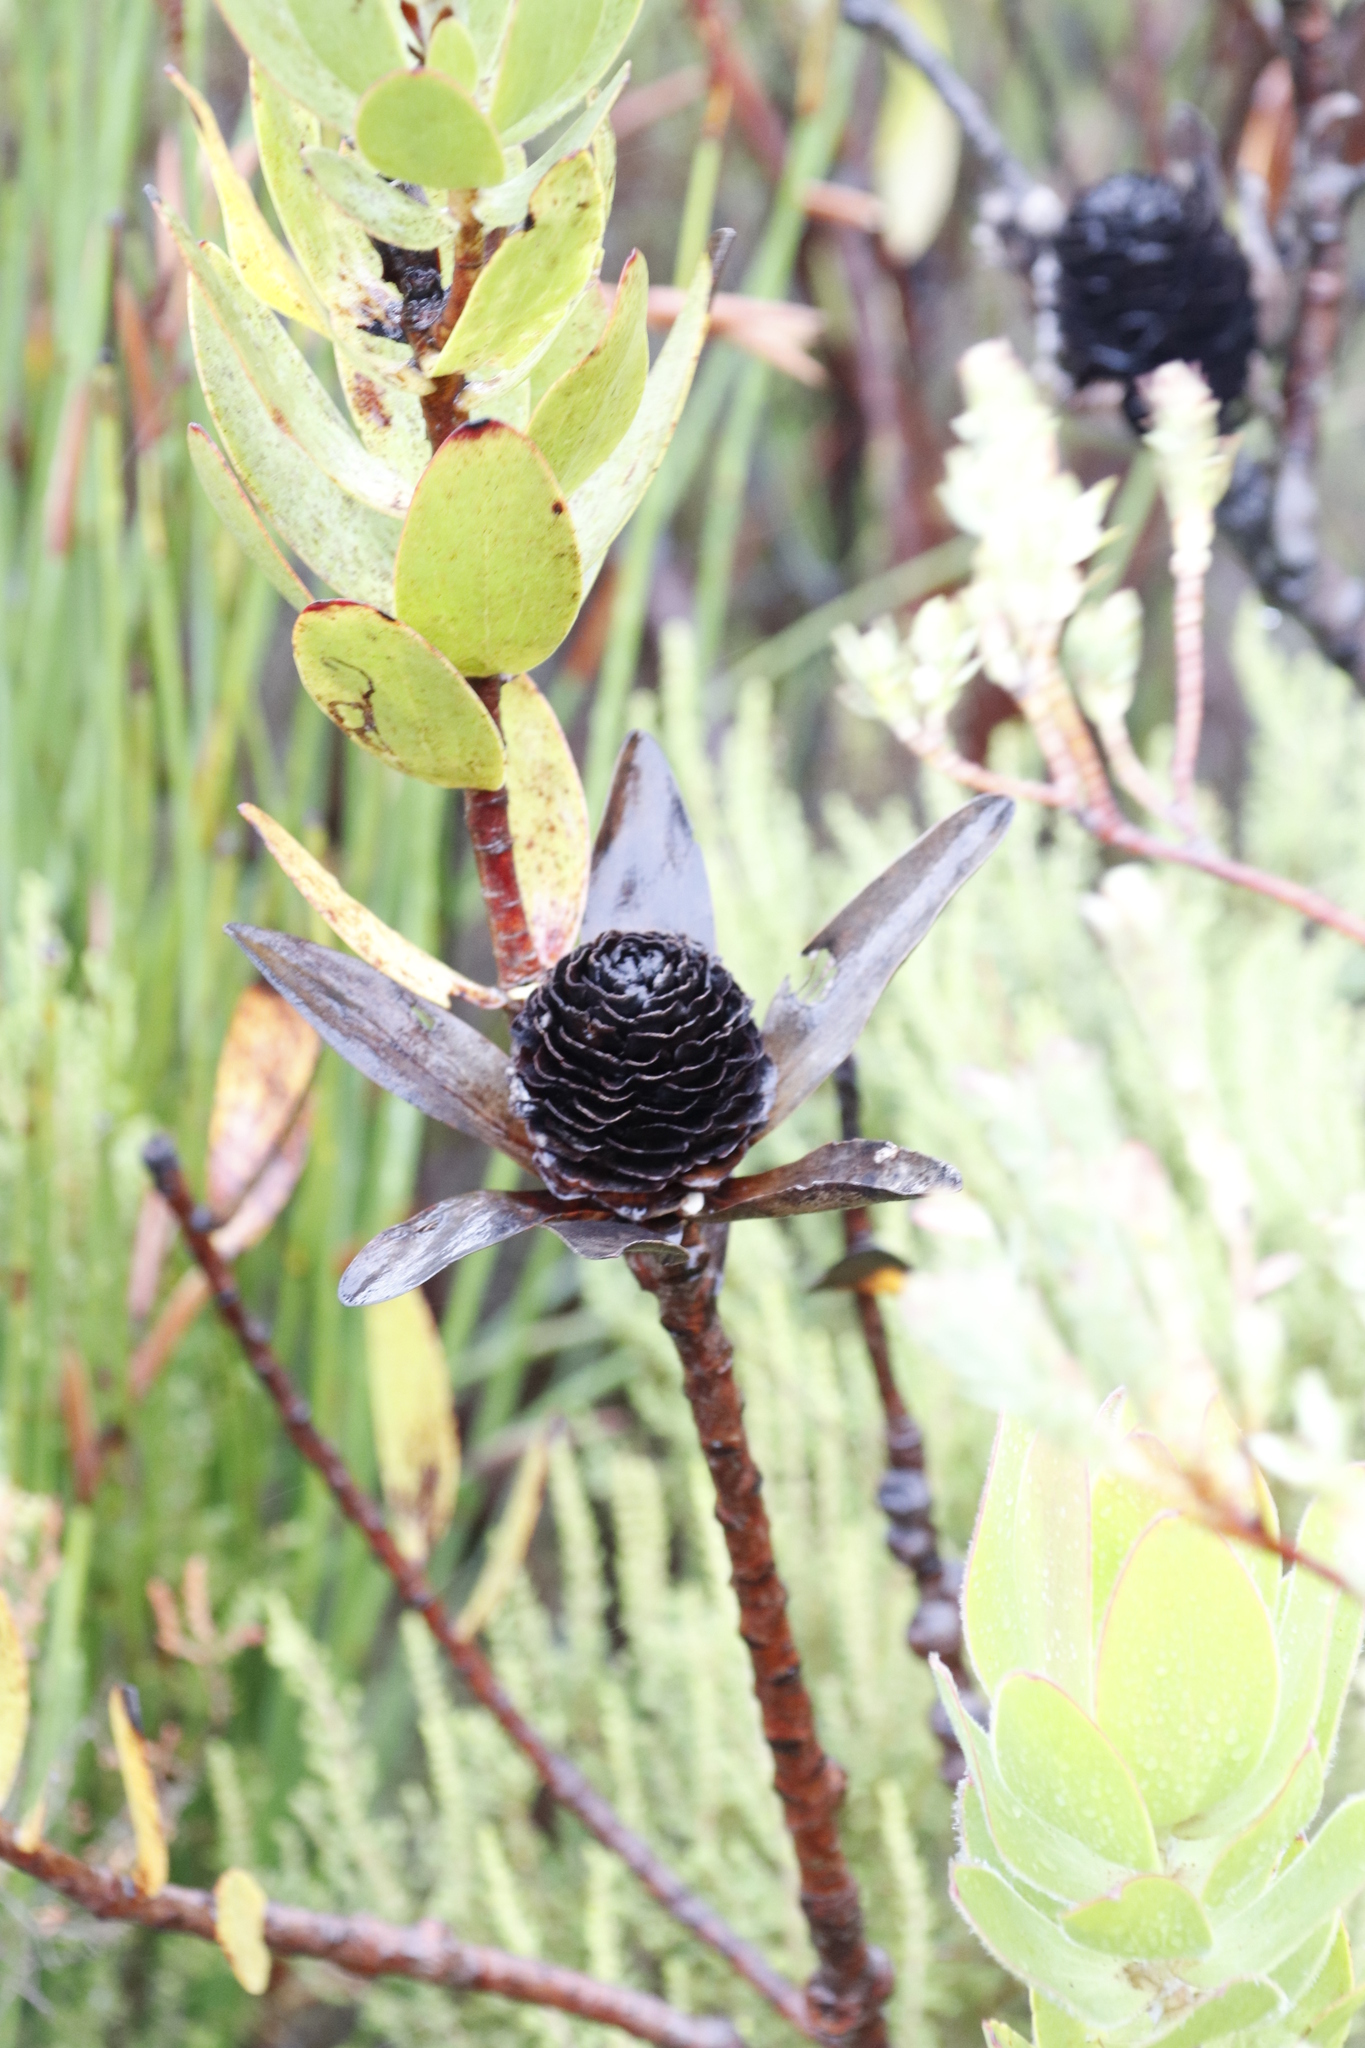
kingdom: Plantae
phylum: Tracheophyta
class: Magnoliopsida
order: Proteales
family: Proteaceae
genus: Leucadendron
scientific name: Leucadendron gandogeri
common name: Broad-leaf conebush
